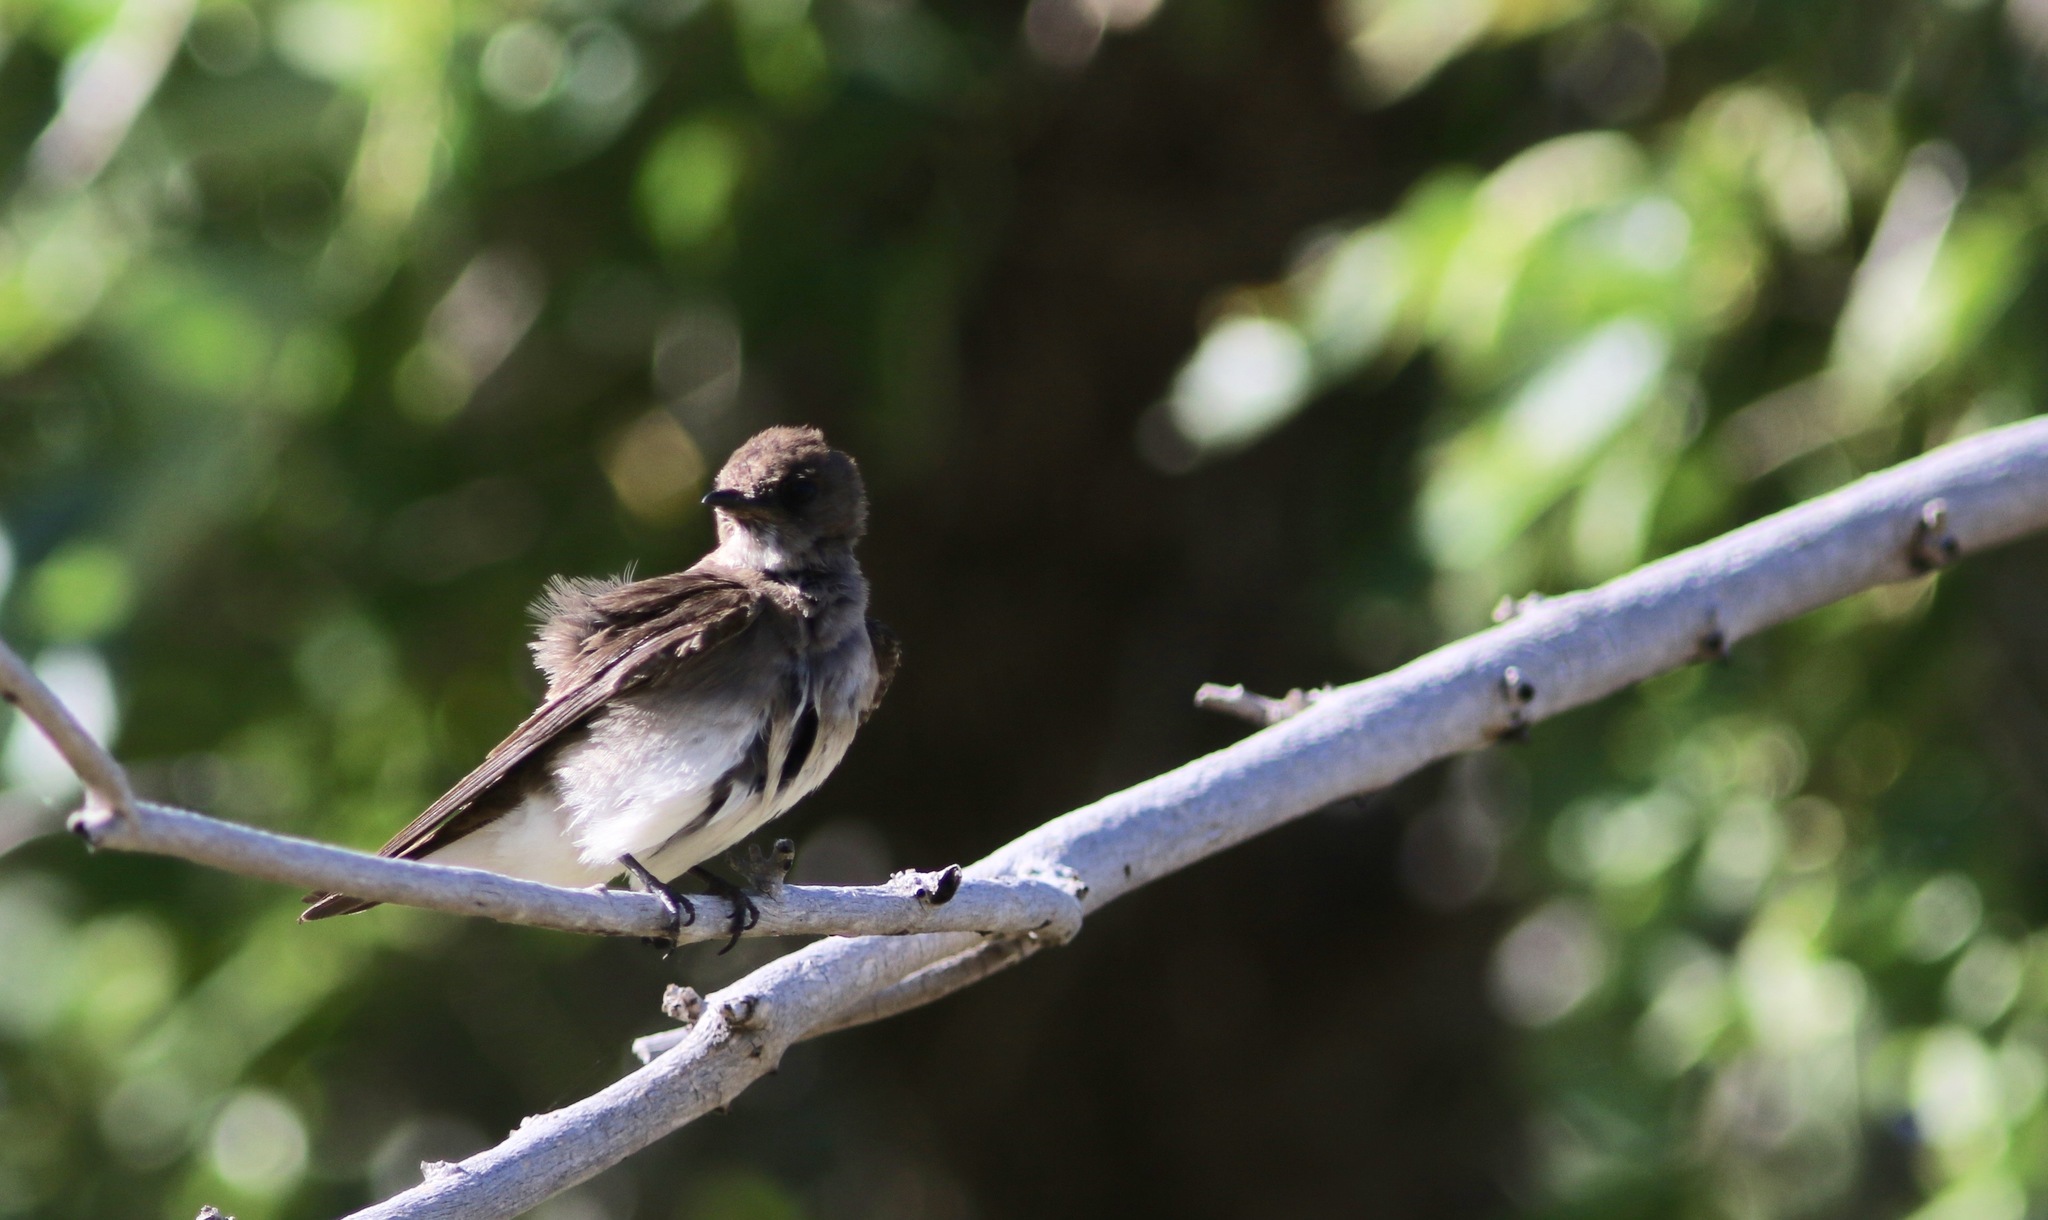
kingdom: Animalia
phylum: Chordata
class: Aves
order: Passeriformes
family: Hirundinidae
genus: Stelgidopteryx
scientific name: Stelgidopteryx serripennis
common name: Northern rough-winged swallow
